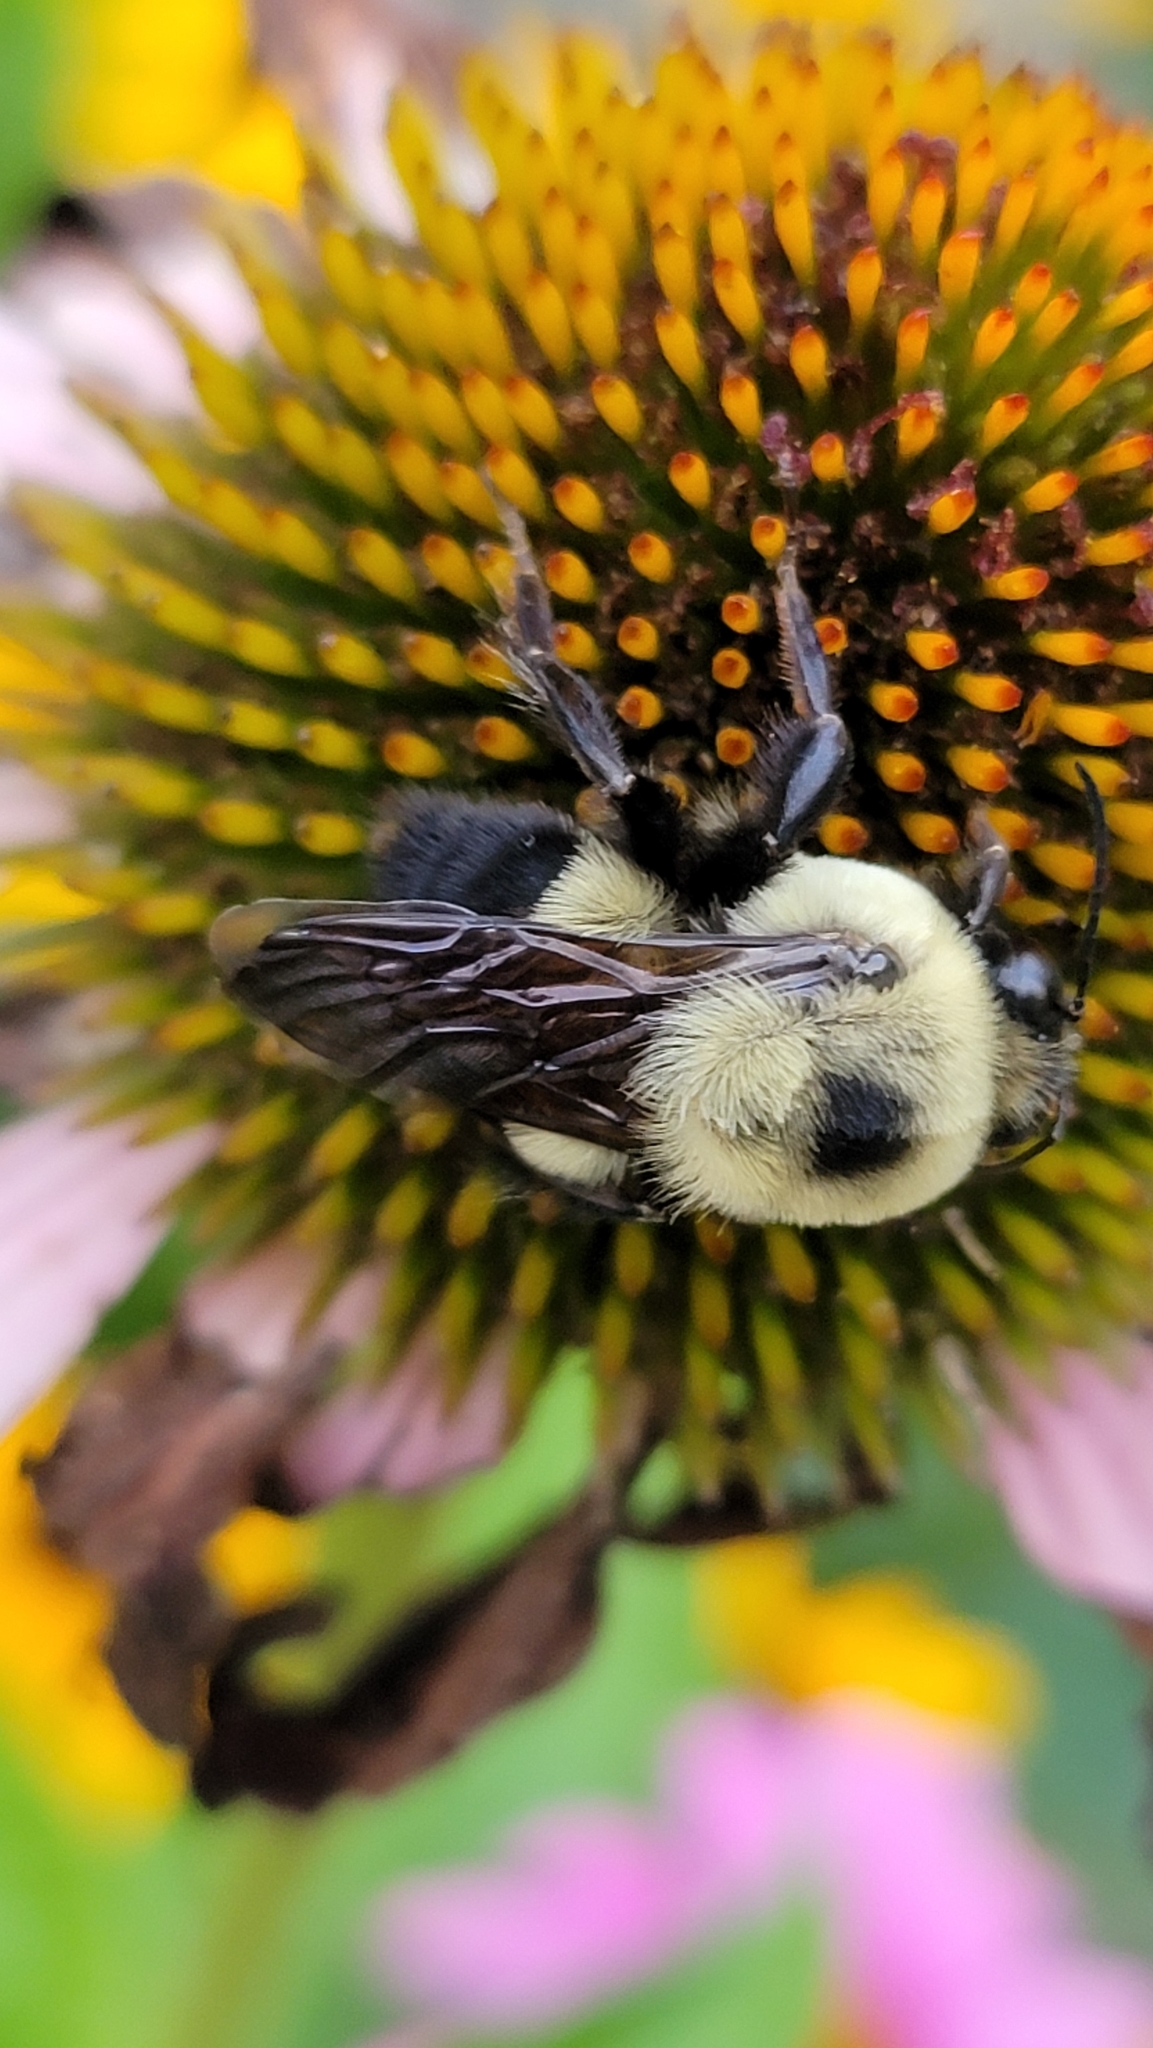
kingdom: Animalia
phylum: Arthropoda
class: Insecta
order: Hymenoptera
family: Apidae
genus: Bombus
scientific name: Bombus griseocollis
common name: Brown-belted bumble bee
